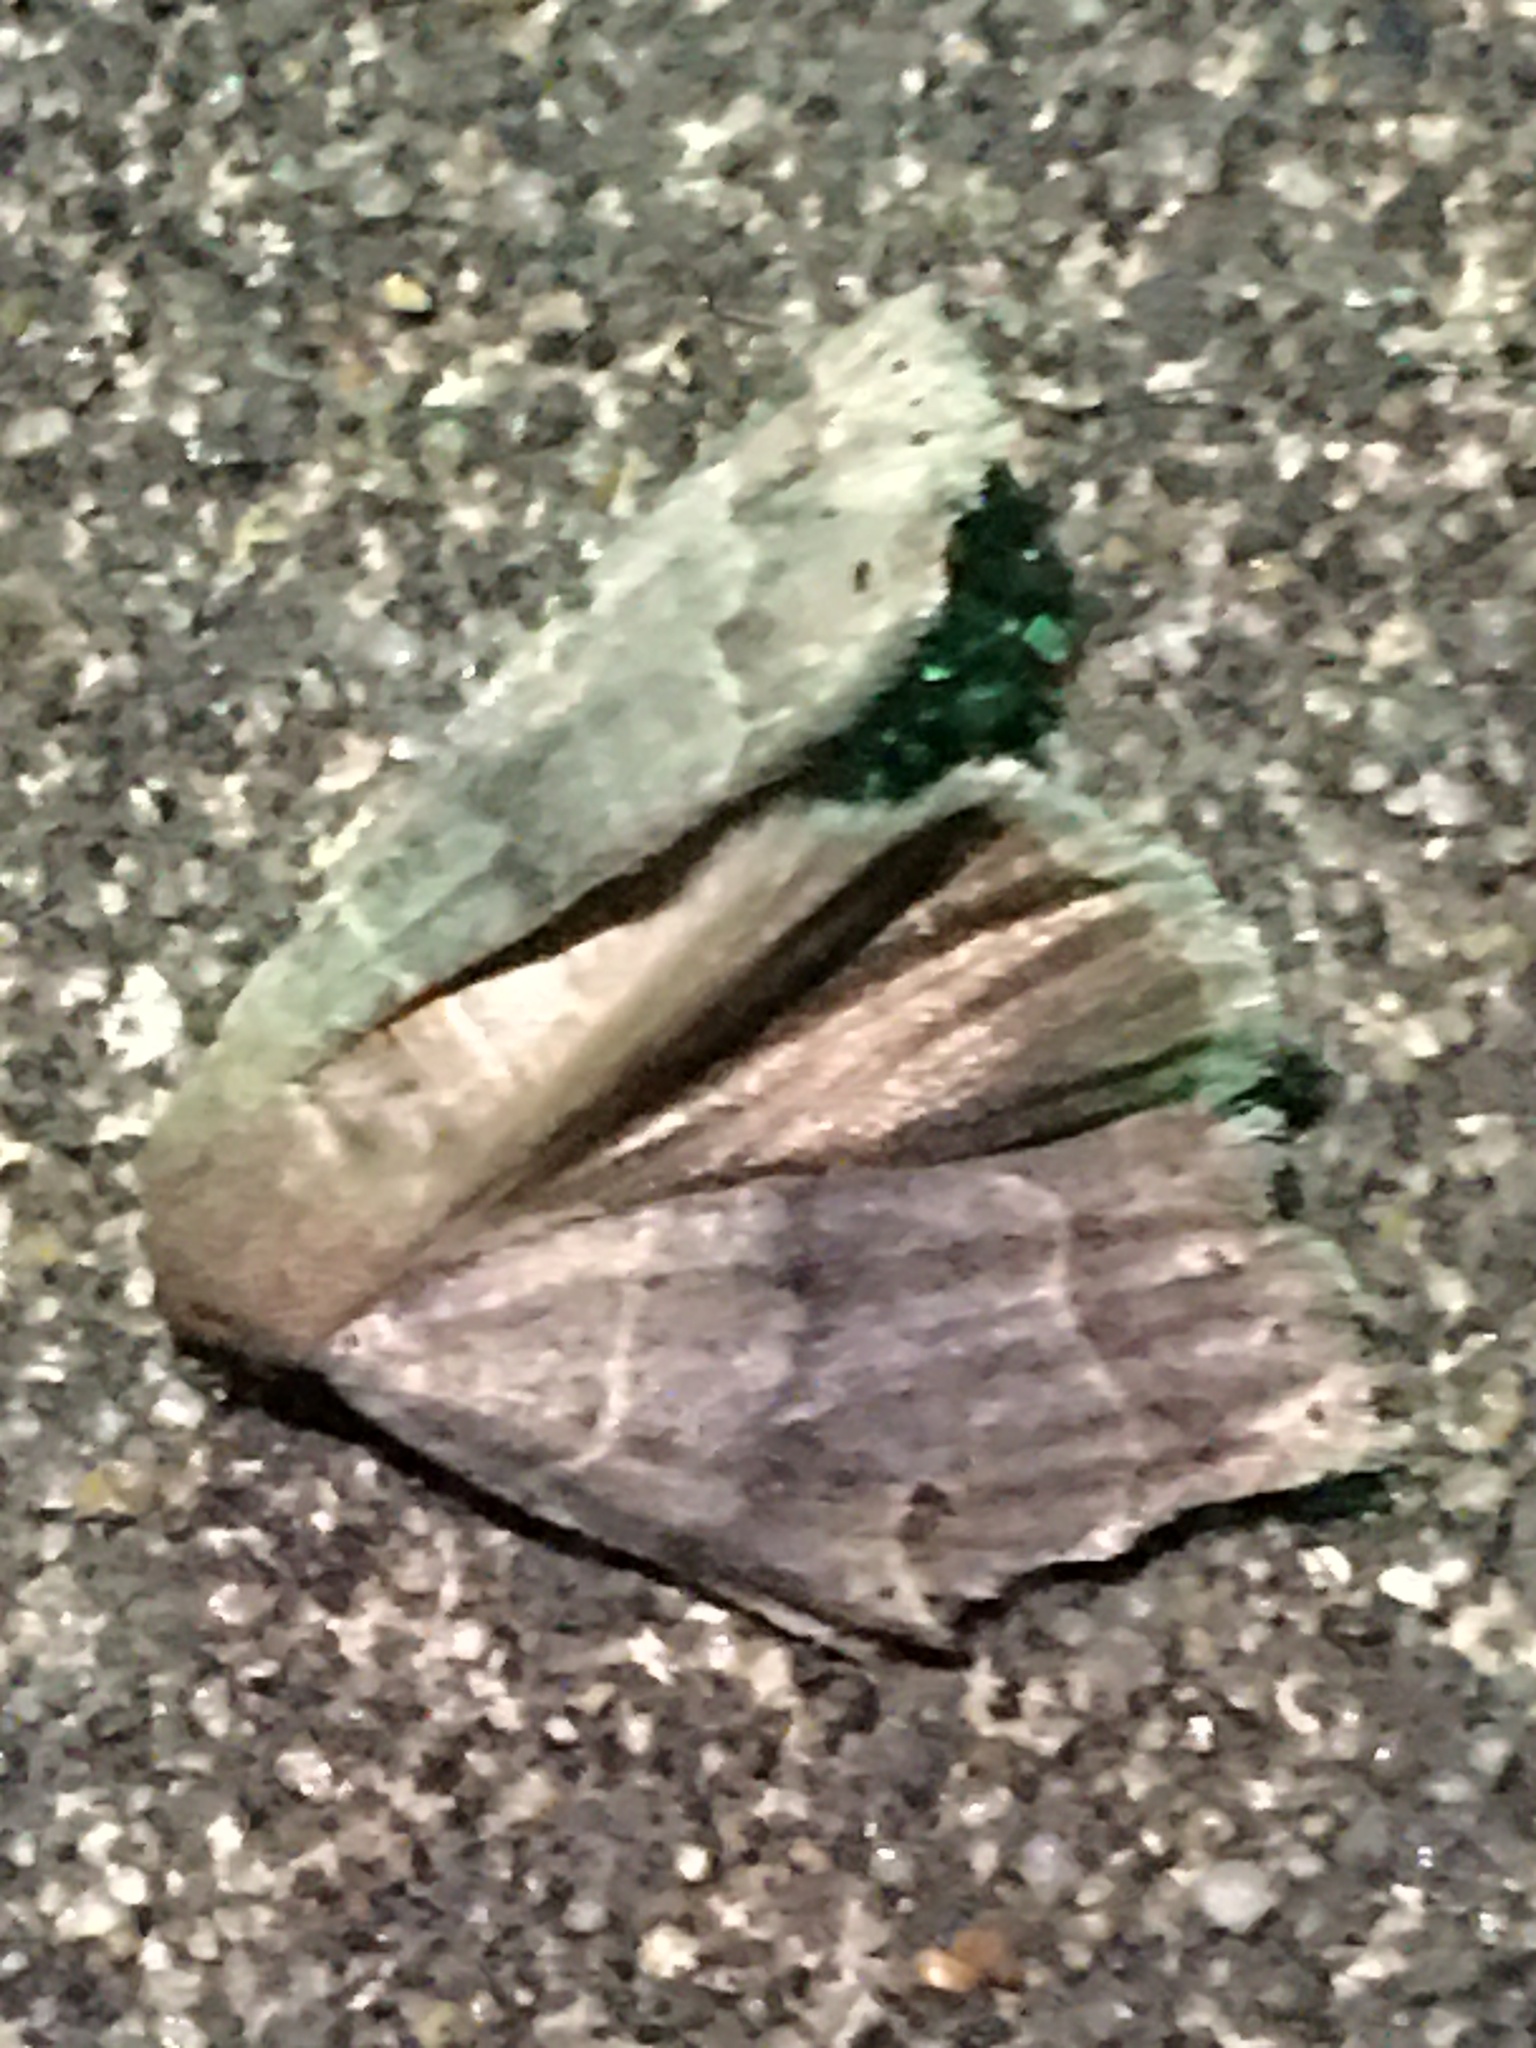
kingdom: Animalia
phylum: Arthropoda
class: Insecta
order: Lepidoptera
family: Erebidae
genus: Phoberia
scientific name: Phoberia atomaris
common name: Common oak moth
